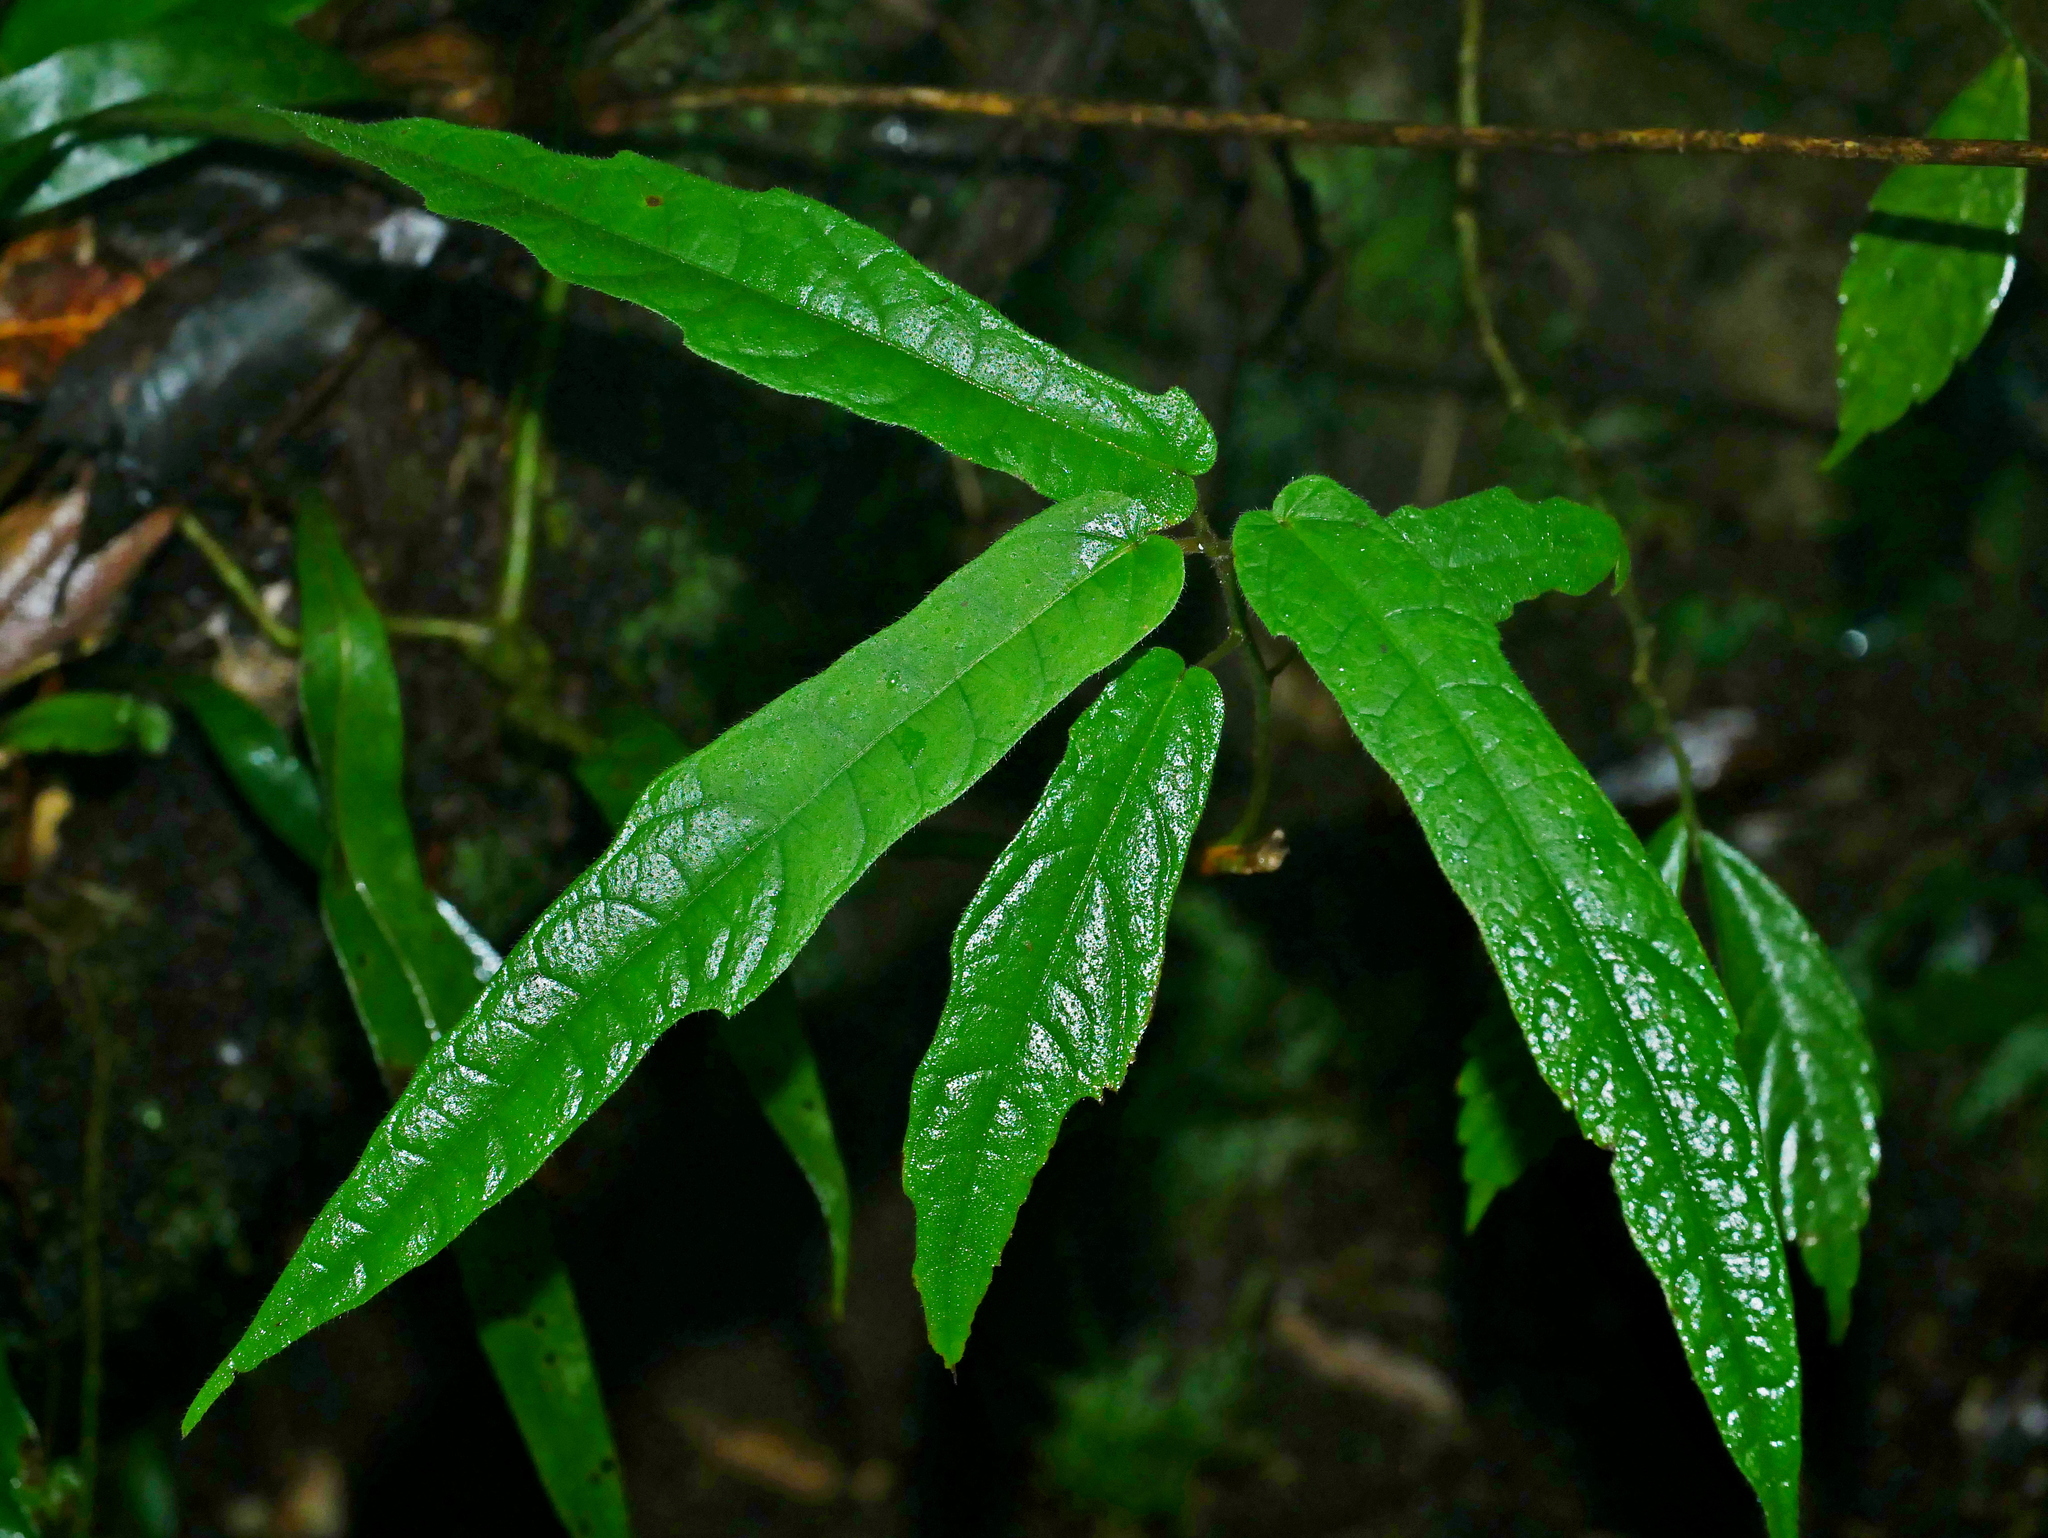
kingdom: Plantae
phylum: Tracheophyta
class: Magnoliopsida
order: Rosales
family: Moraceae
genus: Ficus
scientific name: Ficus tannoensis
